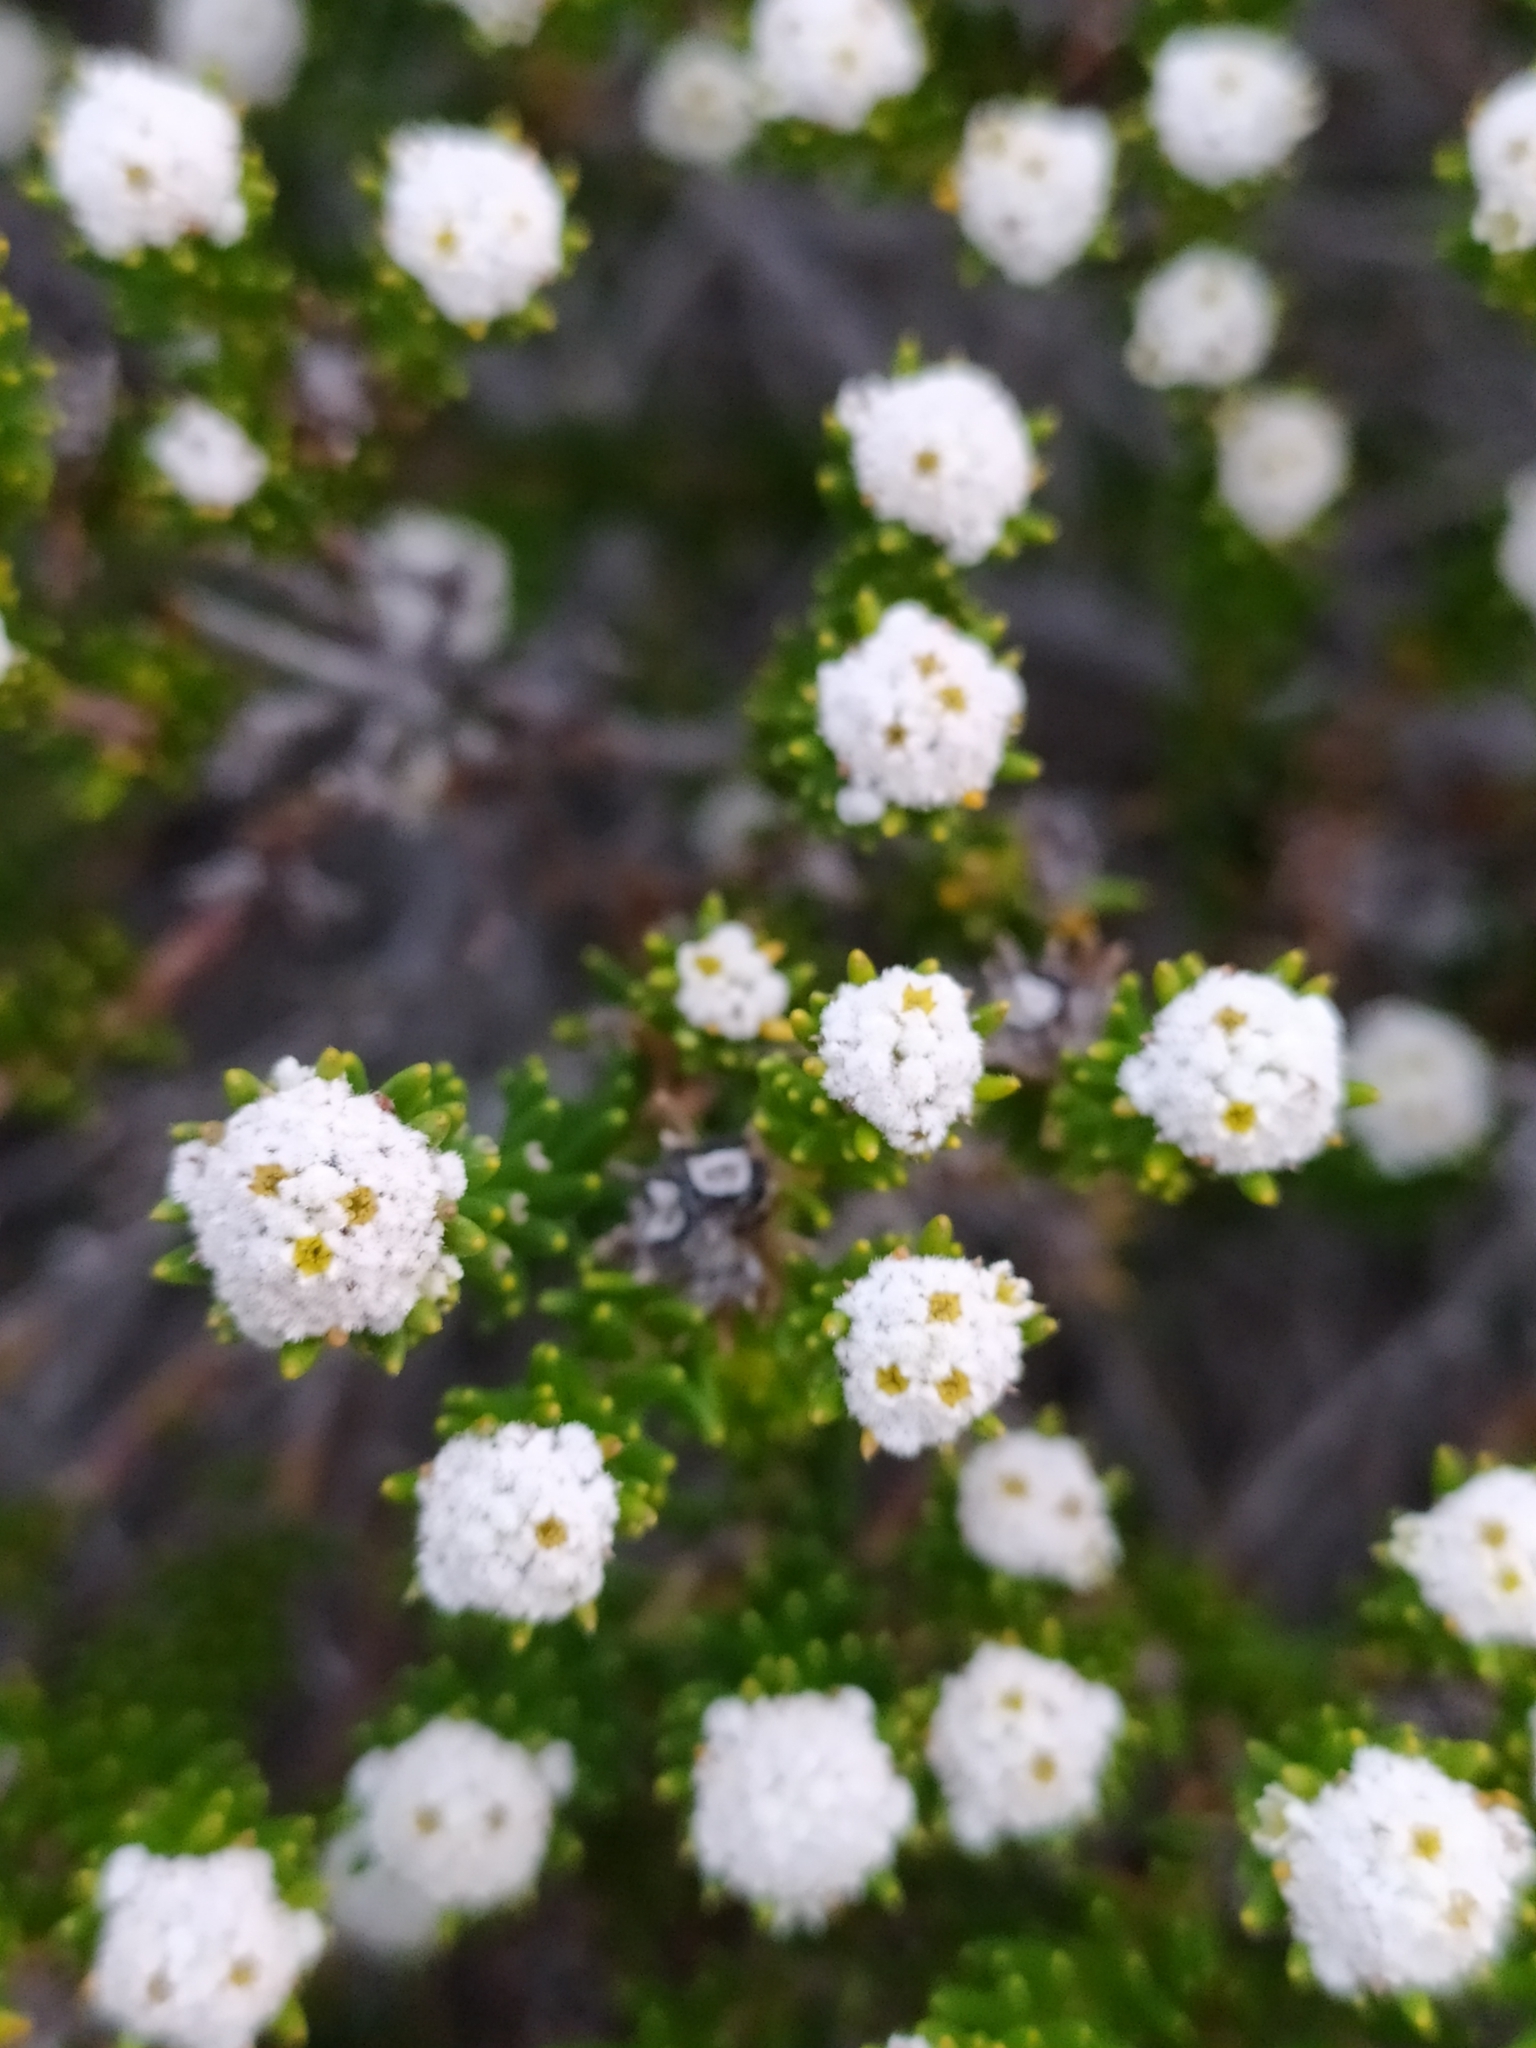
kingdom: Plantae
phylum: Tracheophyta
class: Magnoliopsida
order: Rosales
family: Rhamnaceae
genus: Phylica
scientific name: Phylica ericoides
